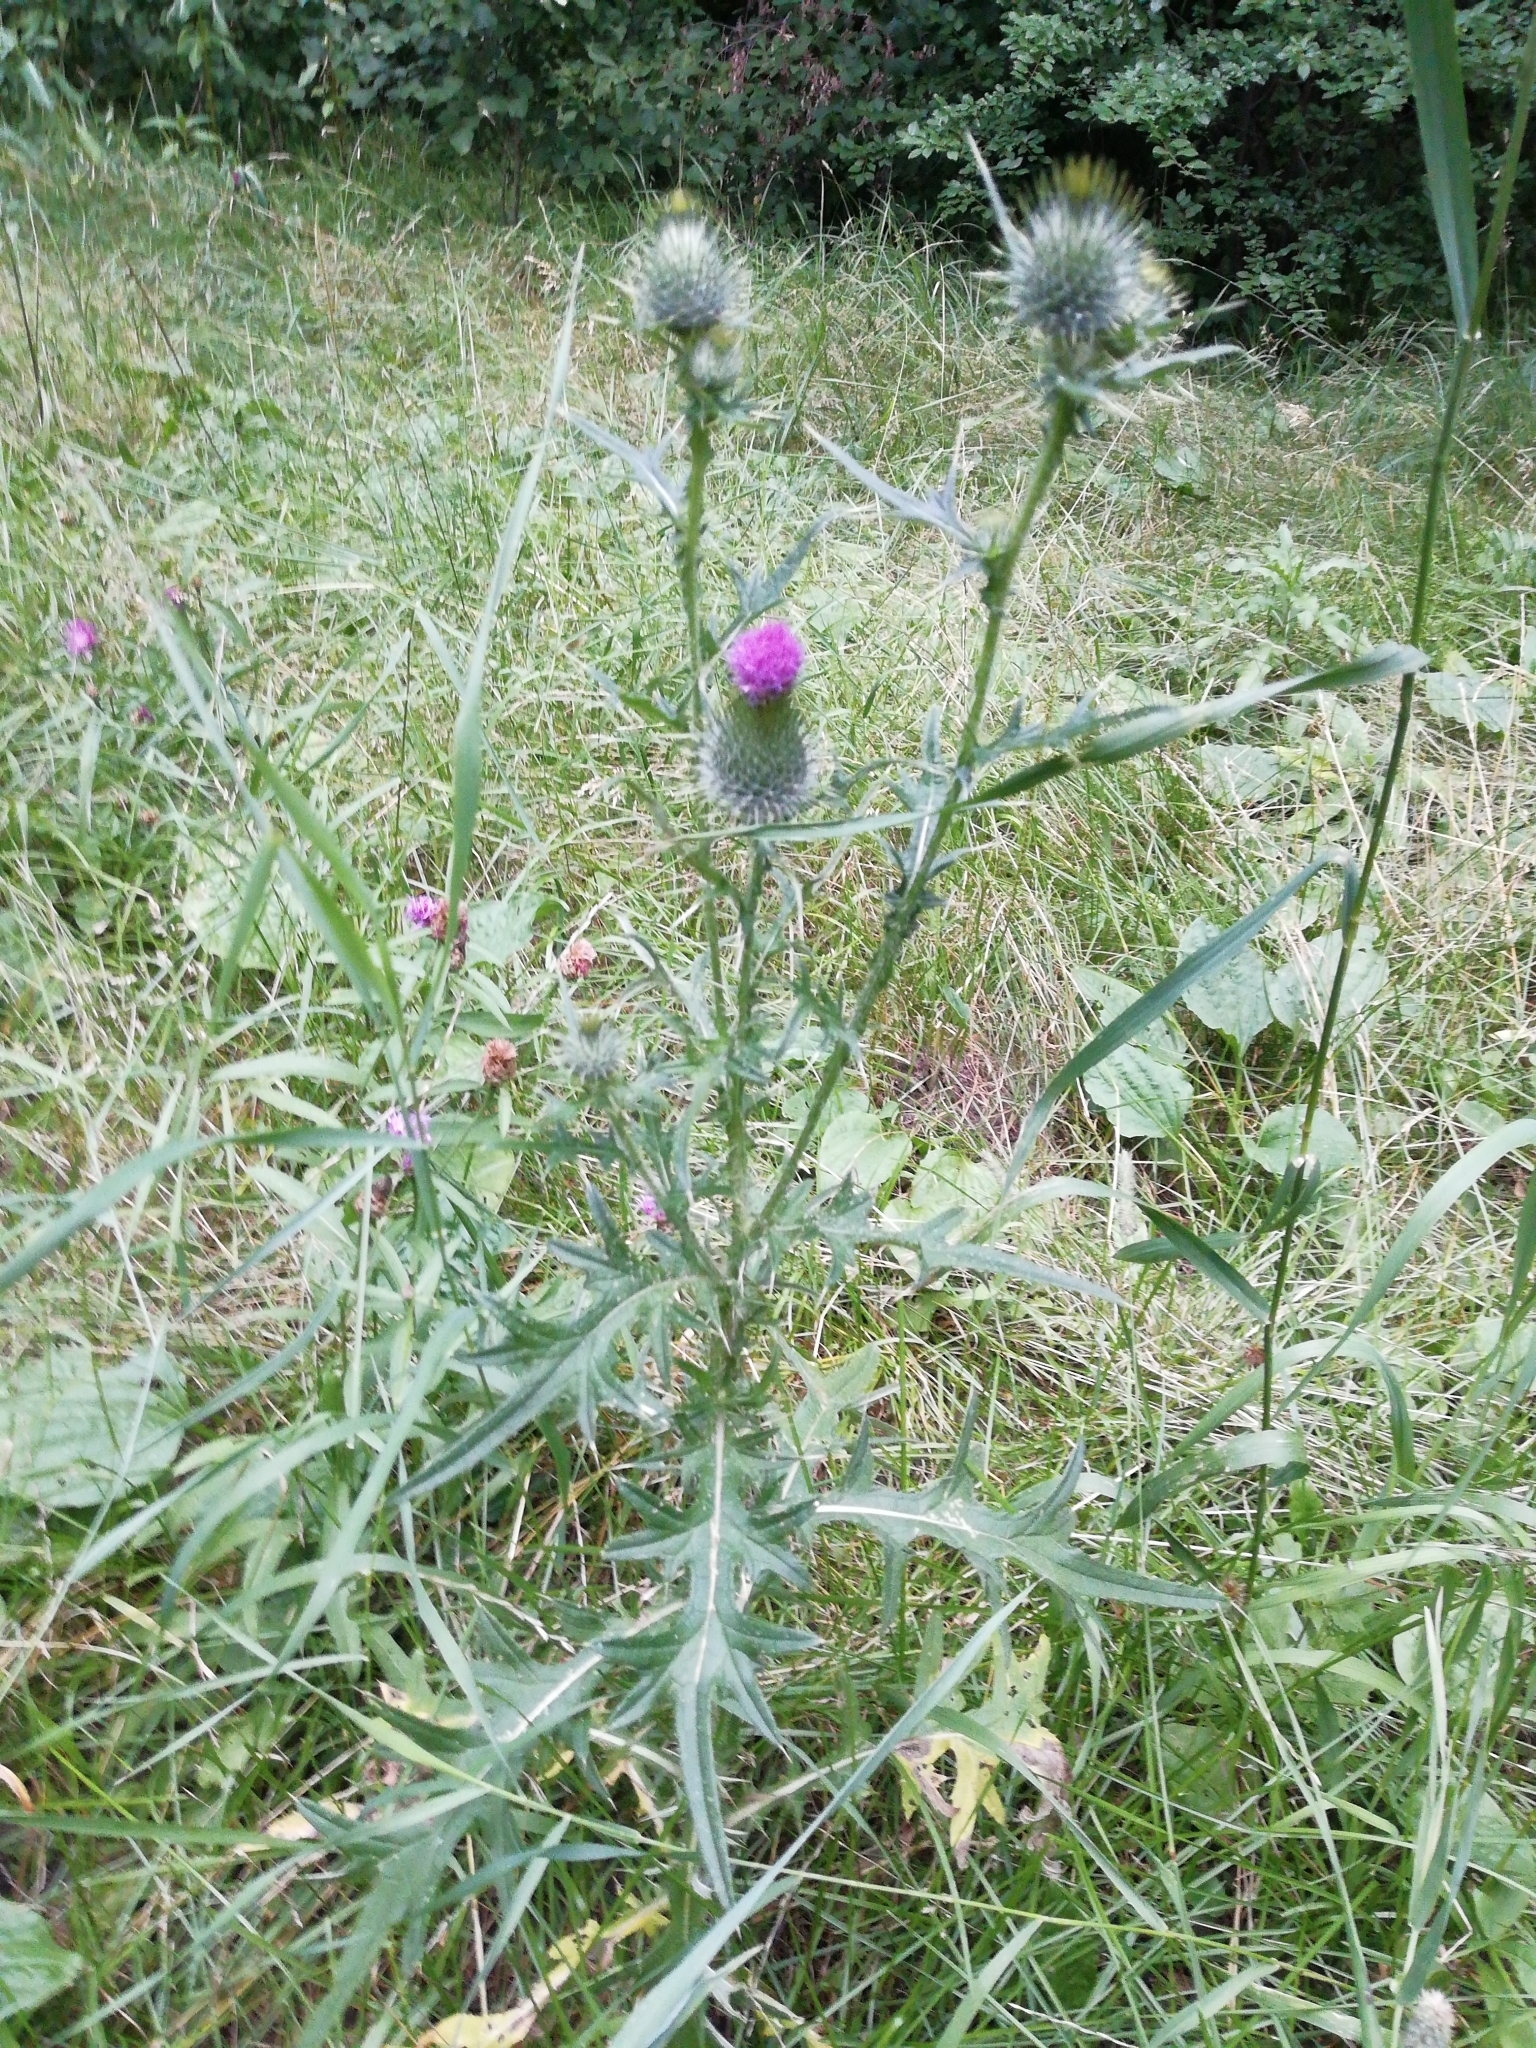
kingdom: Plantae
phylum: Tracheophyta
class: Magnoliopsida
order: Asterales
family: Asteraceae
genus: Cirsium
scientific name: Cirsium vulgare
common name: Bull thistle
